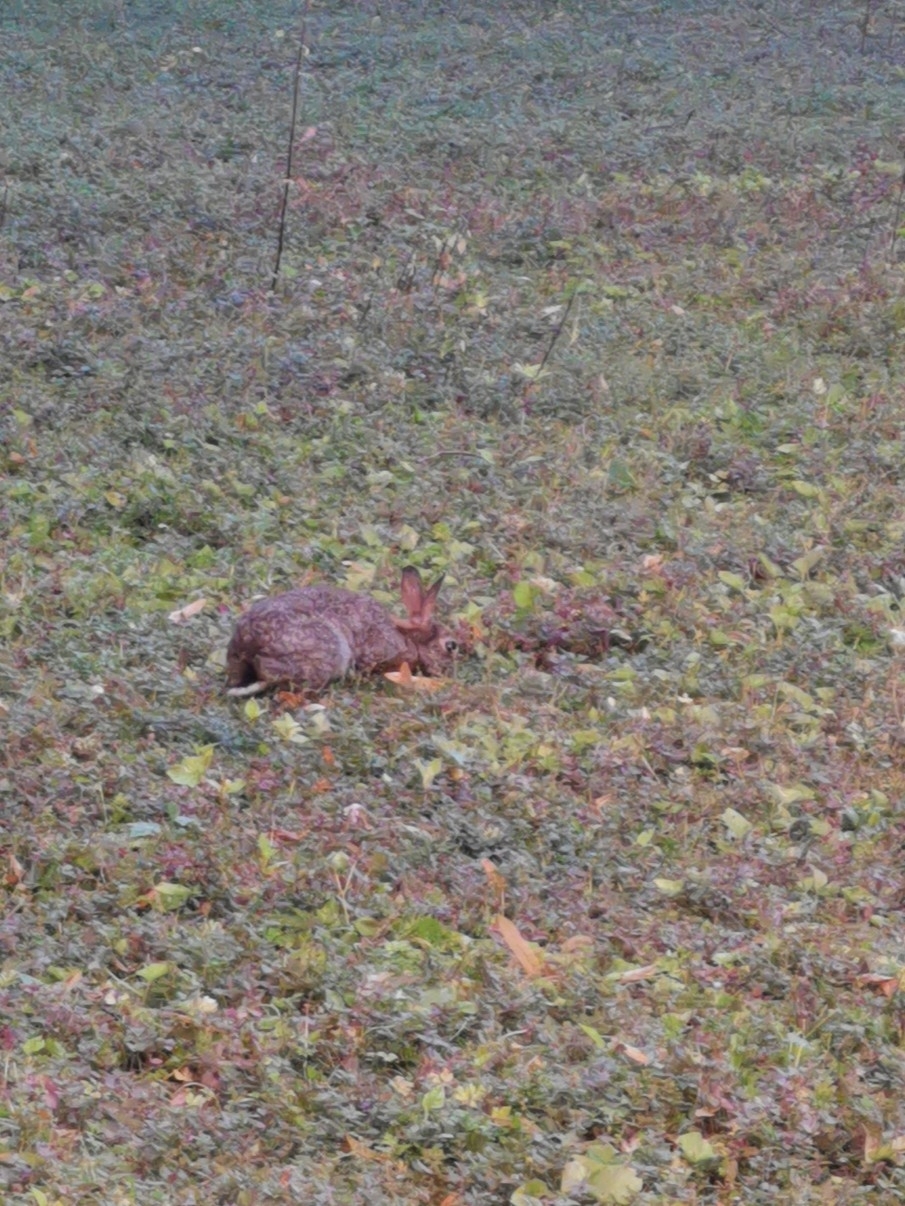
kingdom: Animalia
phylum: Chordata
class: Mammalia
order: Lagomorpha
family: Leporidae
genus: Oryctolagus
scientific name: Oryctolagus cuniculus
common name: European rabbit
